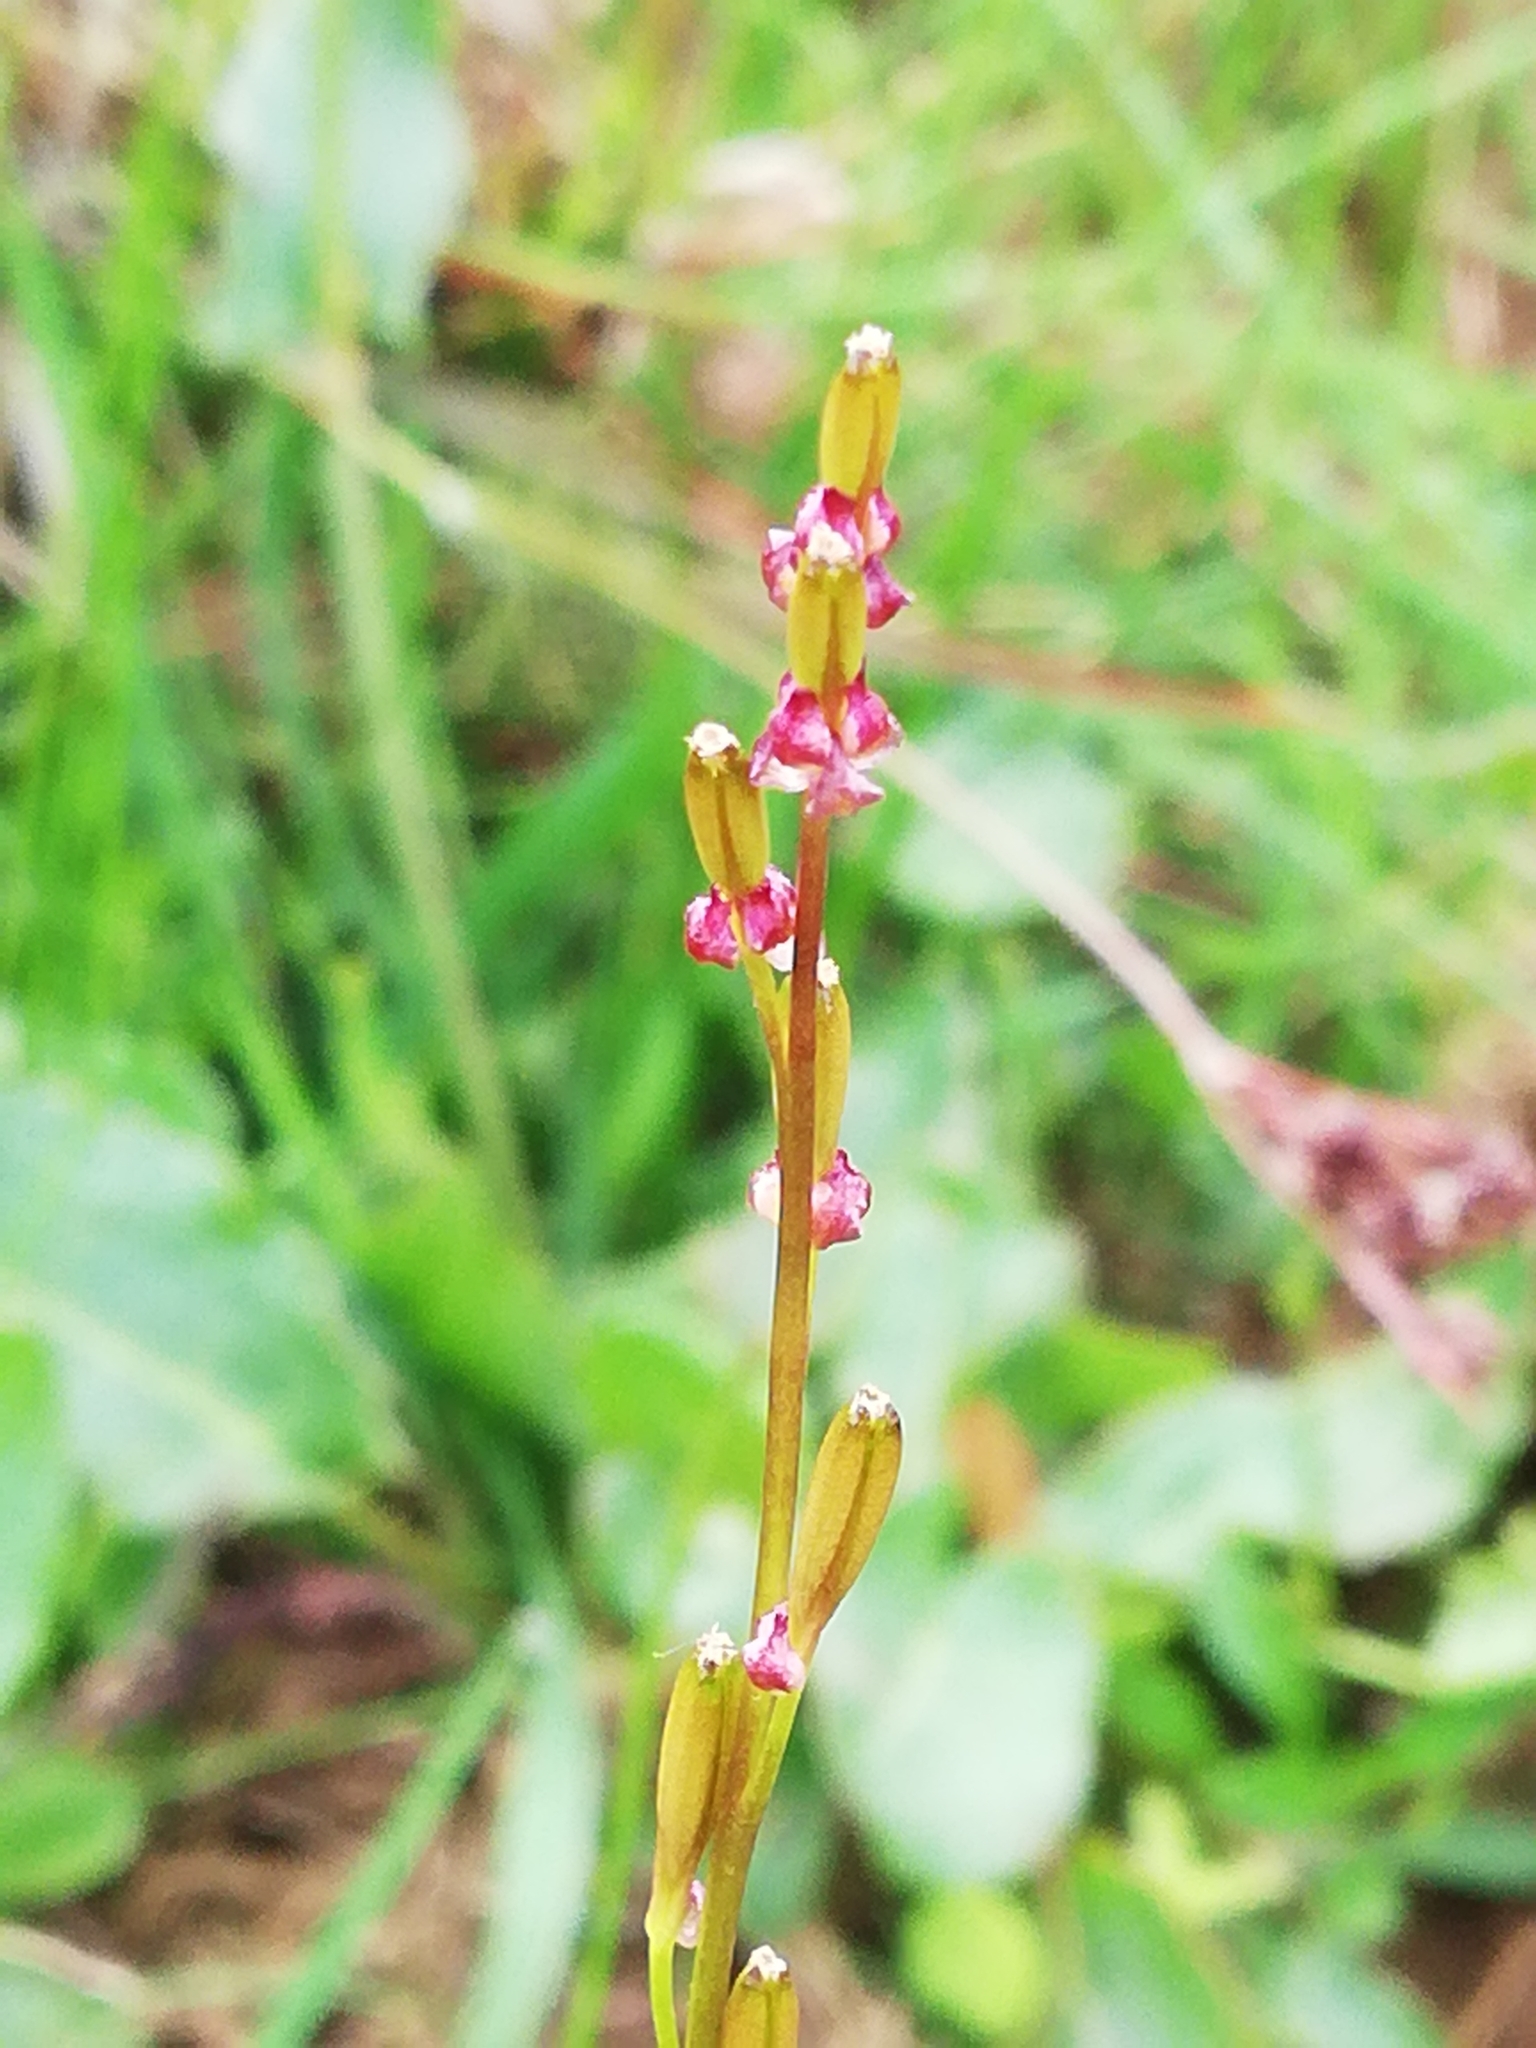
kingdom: Plantae
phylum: Tracheophyta
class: Liliopsida
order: Alismatales
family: Juncaginaceae
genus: Triglochin
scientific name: Triglochin palustris
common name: Marsh arrowgrass
